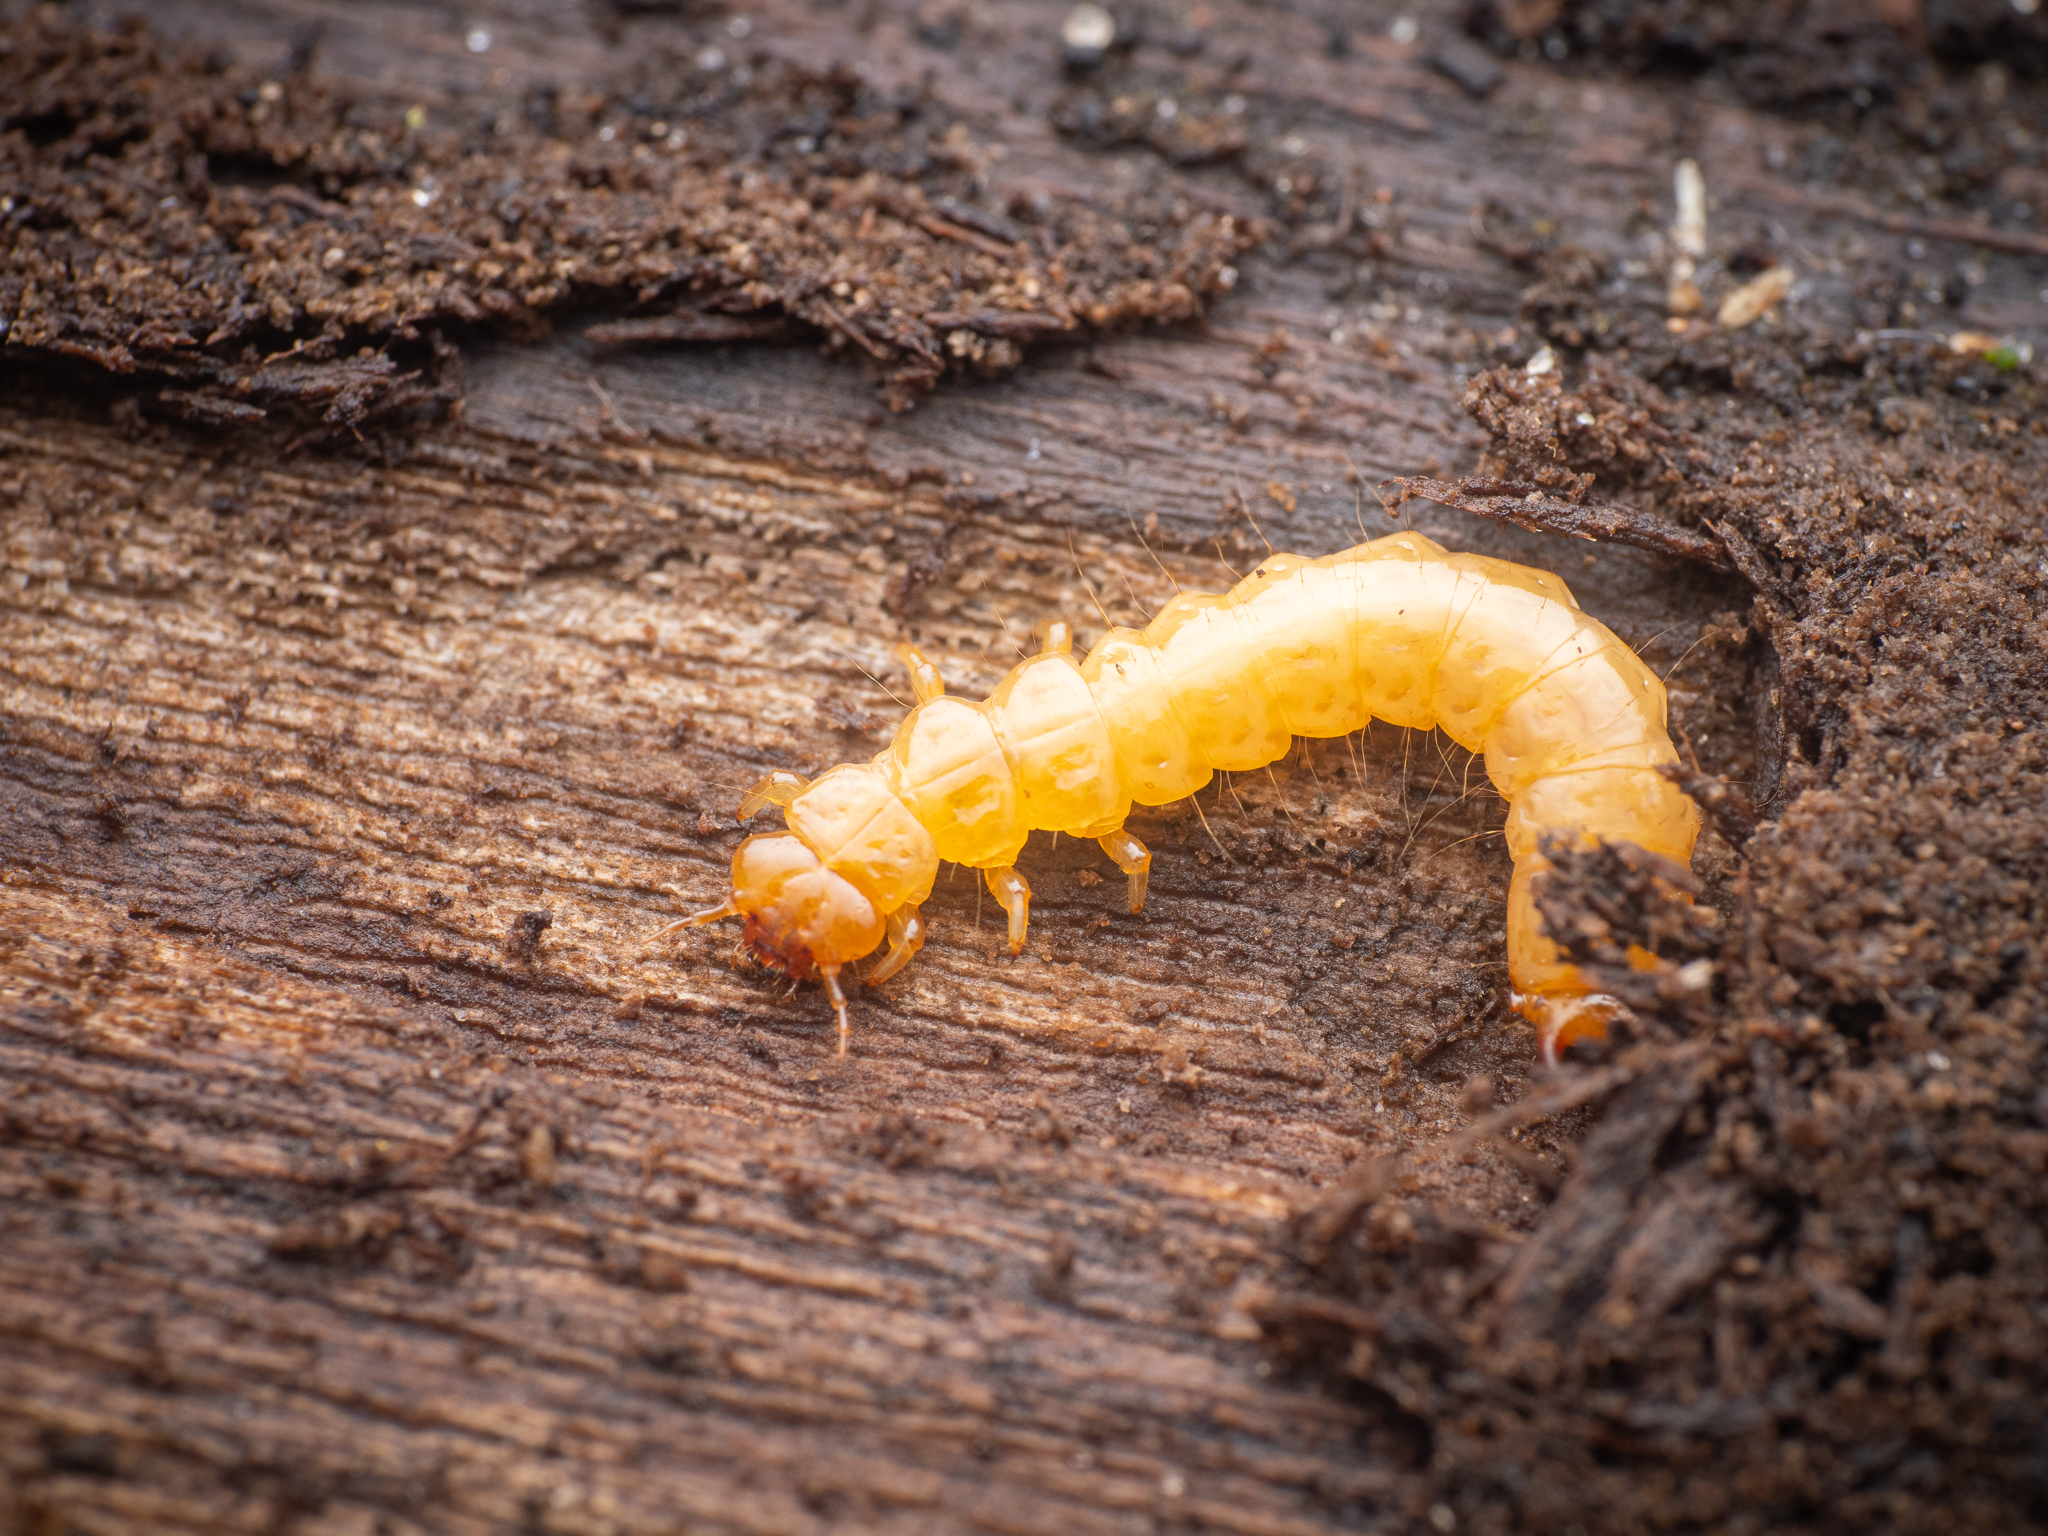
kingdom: Animalia
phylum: Arthropoda
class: Insecta
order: Coleoptera
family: Pyrochroidae
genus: Schizotus
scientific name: Schizotus pectinicornis
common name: Scarce cardinal beetle
